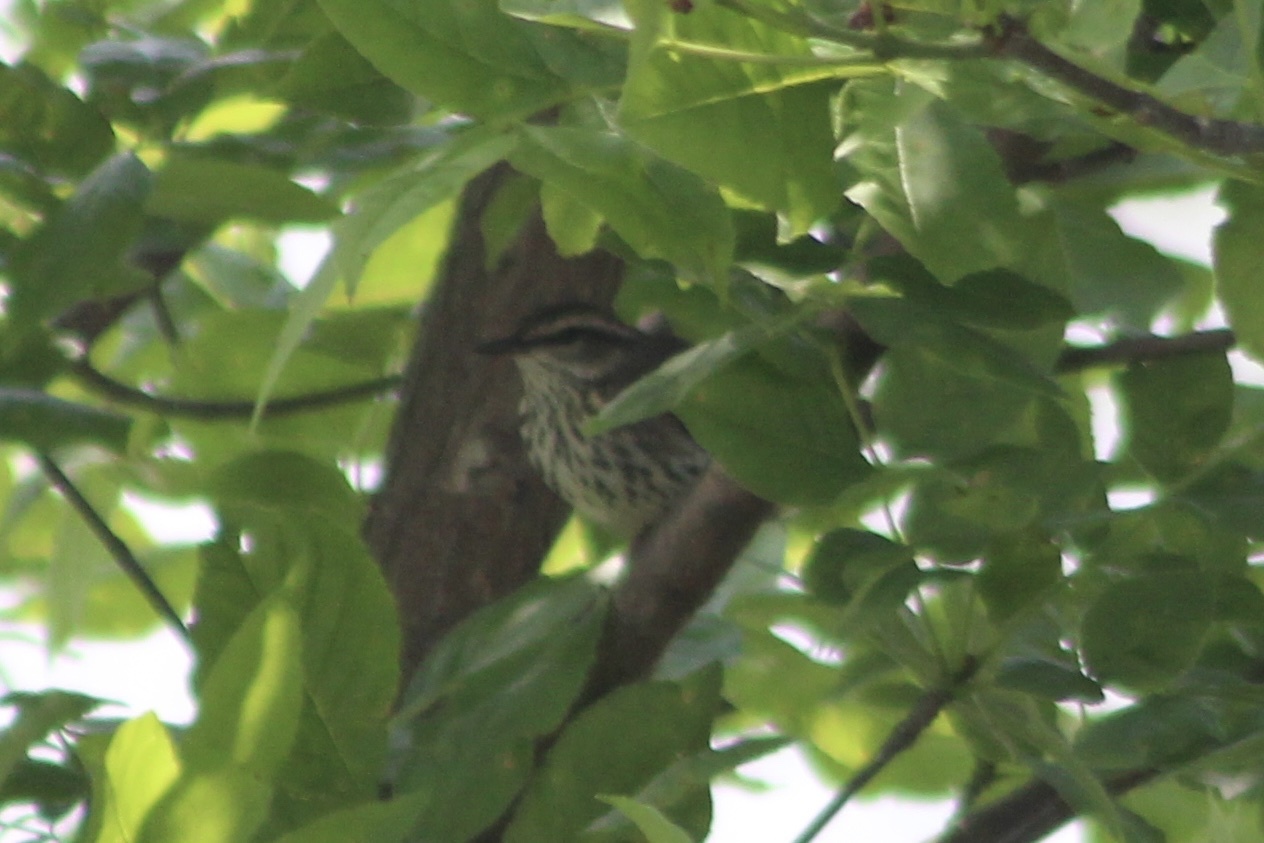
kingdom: Animalia
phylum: Chordata
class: Aves
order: Passeriformes
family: Parulidae
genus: Parkesia
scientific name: Parkesia noveboracensis
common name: Northern waterthrush
